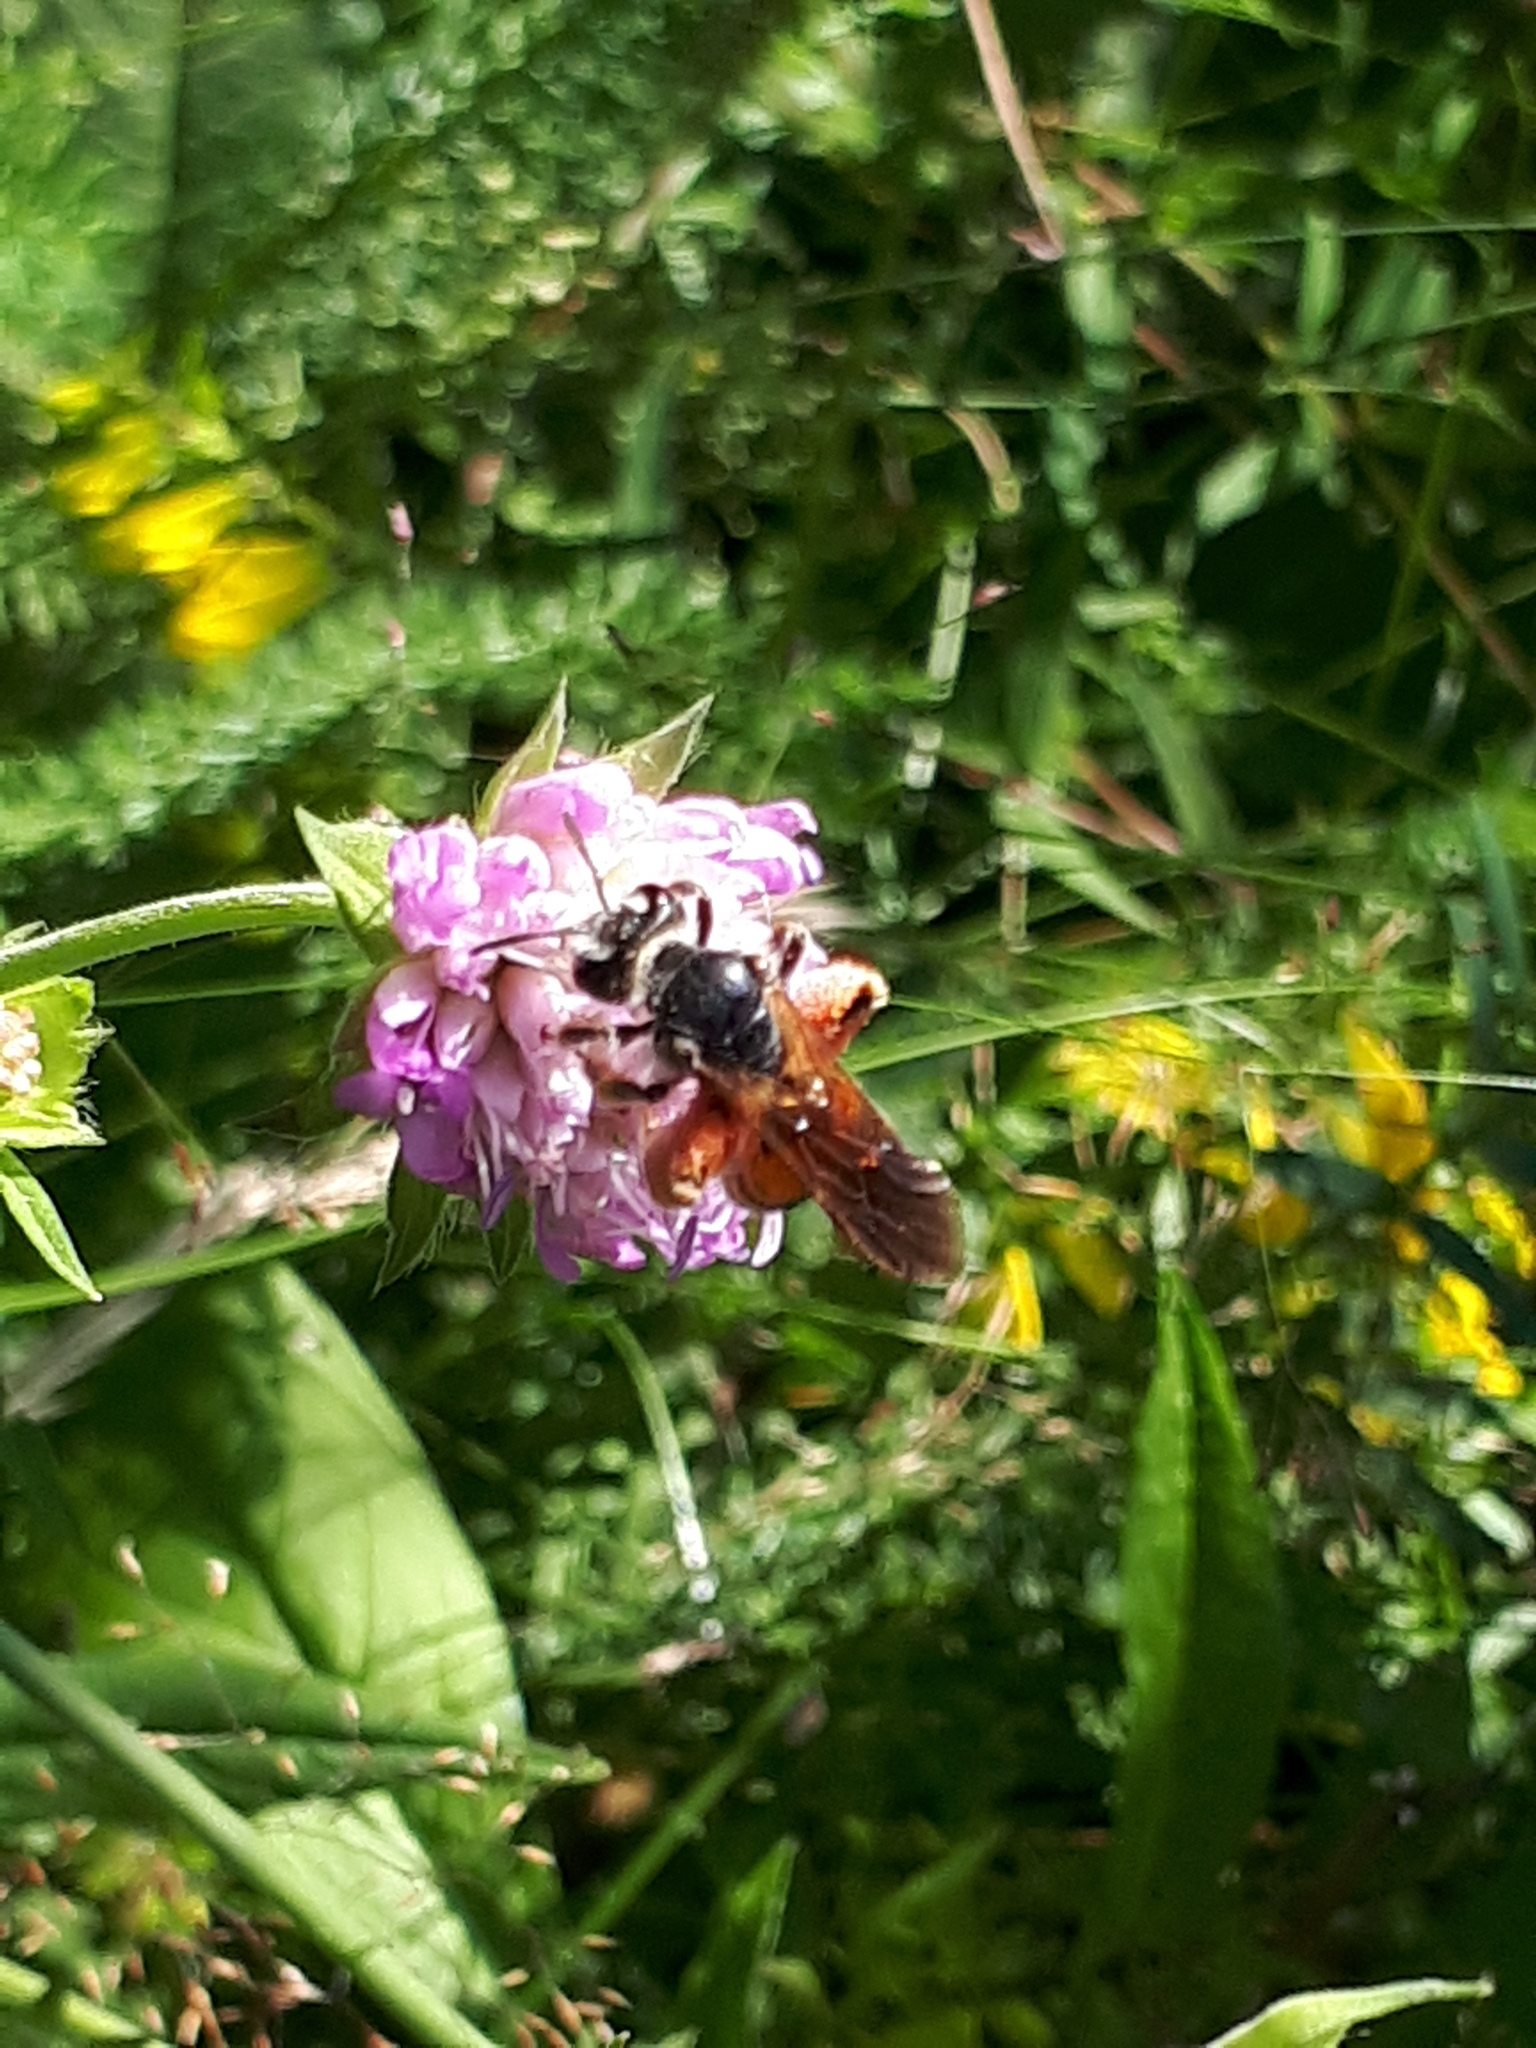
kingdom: Animalia
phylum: Arthropoda
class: Insecta
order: Hymenoptera
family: Andrenidae
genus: Andrena
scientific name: Andrena hattorfiana
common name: Large scabious mining bee
